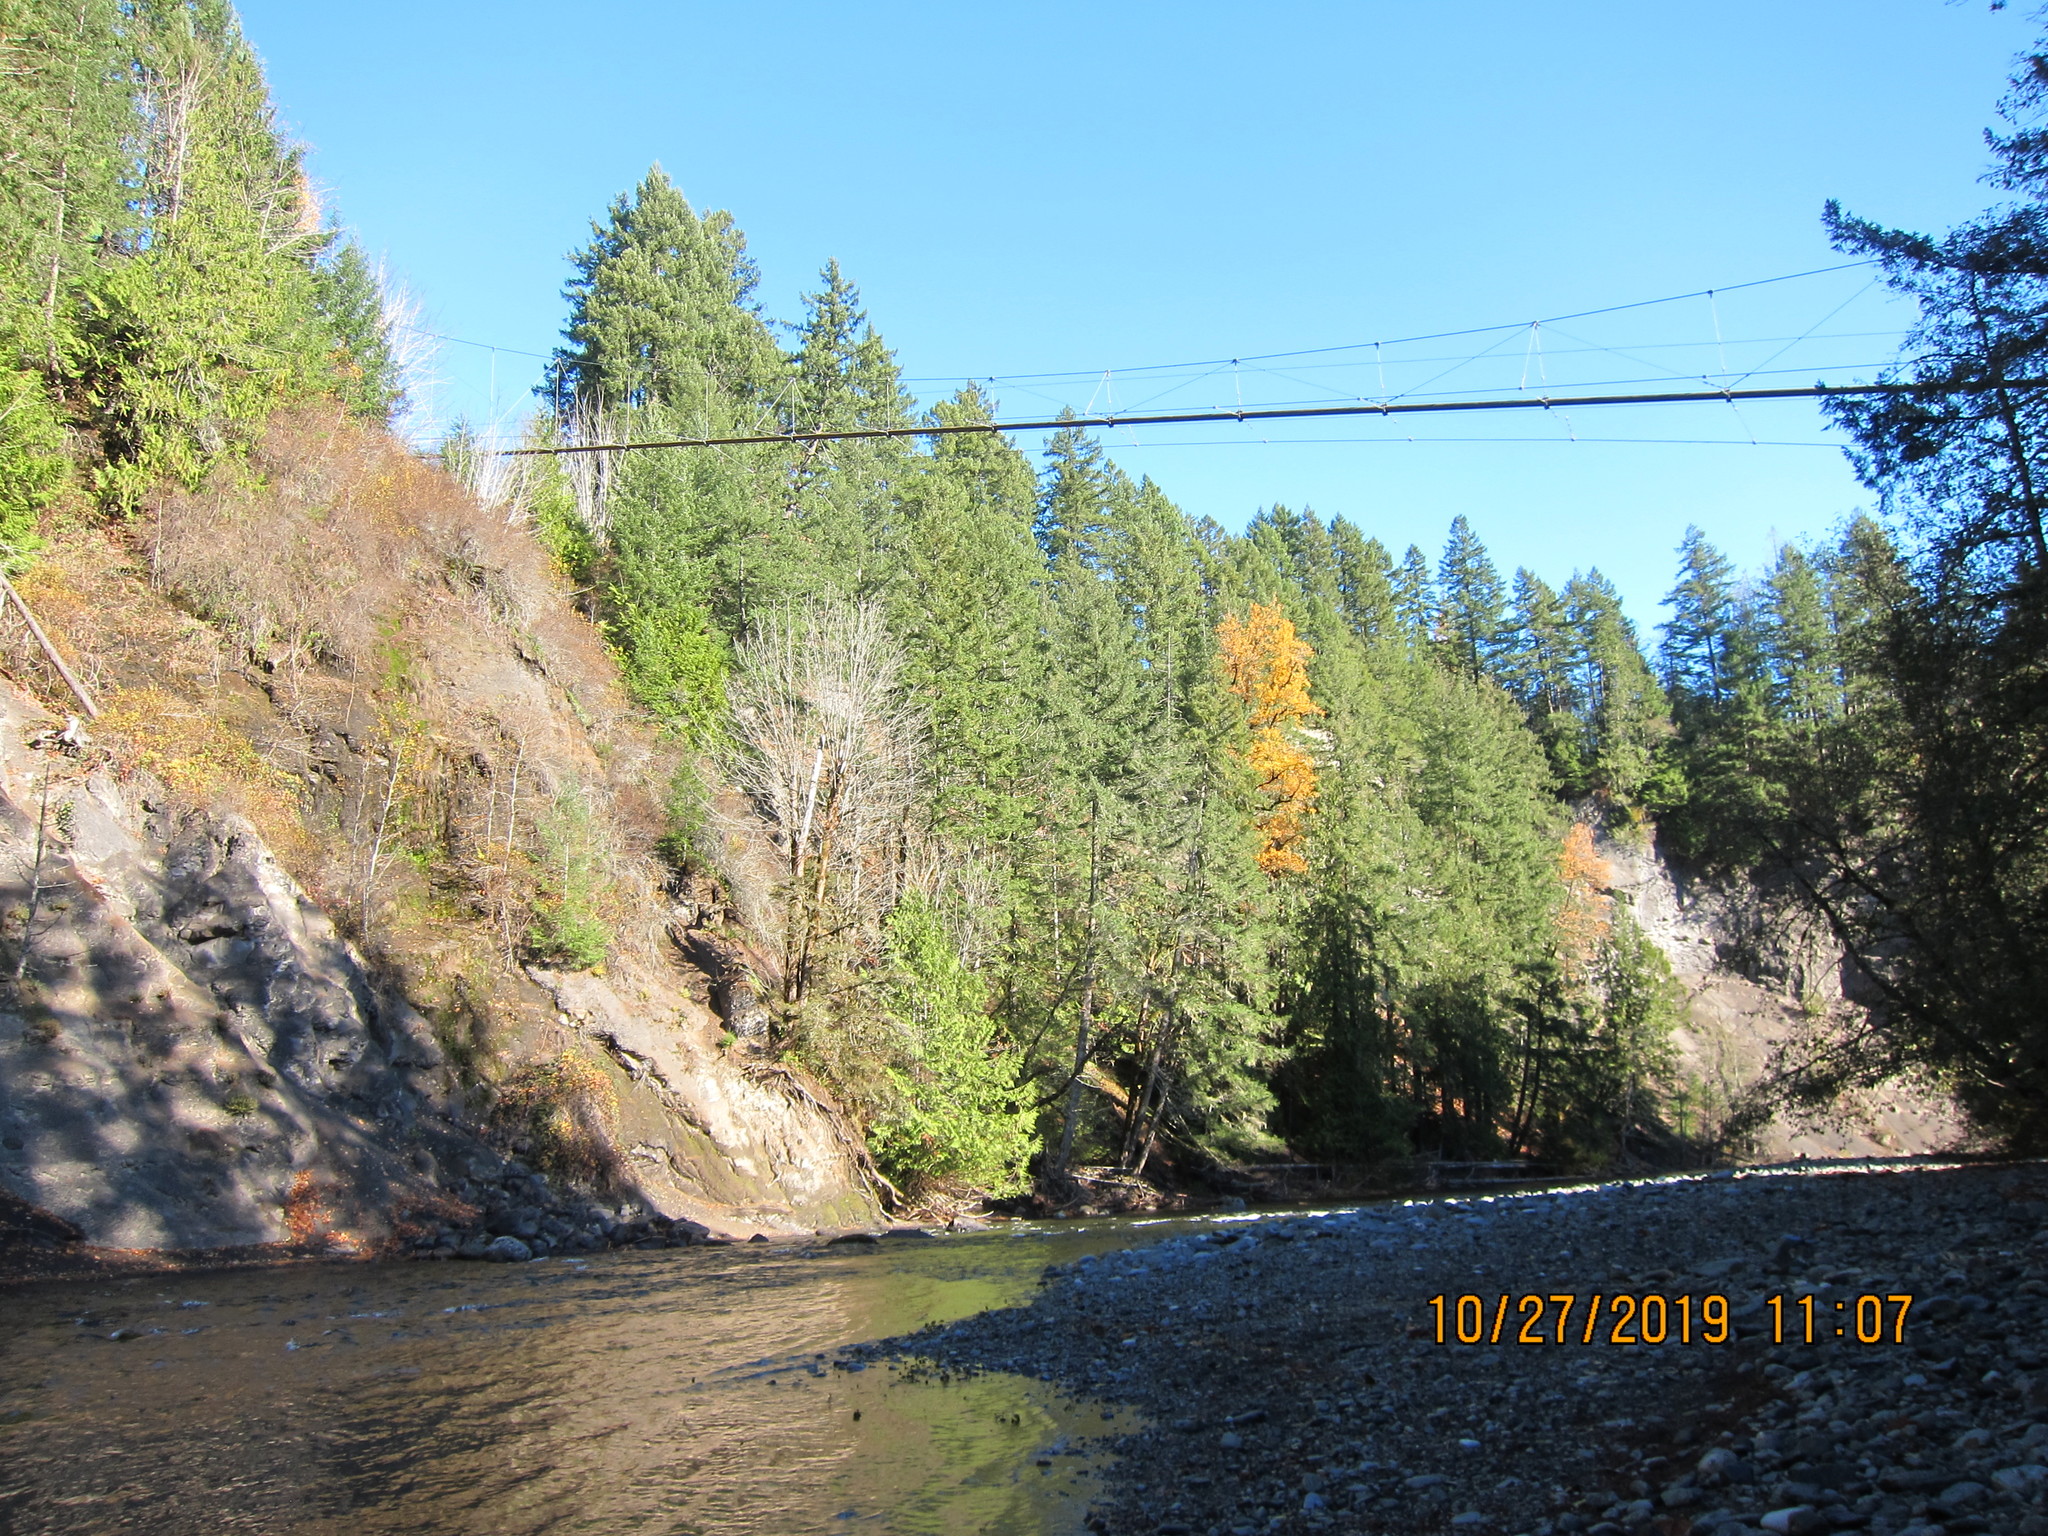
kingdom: Plantae
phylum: Tracheophyta
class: Pinopsida
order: Pinales
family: Pinaceae
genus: Pseudotsuga
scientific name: Pseudotsuga menziesii
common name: Douglas fir
